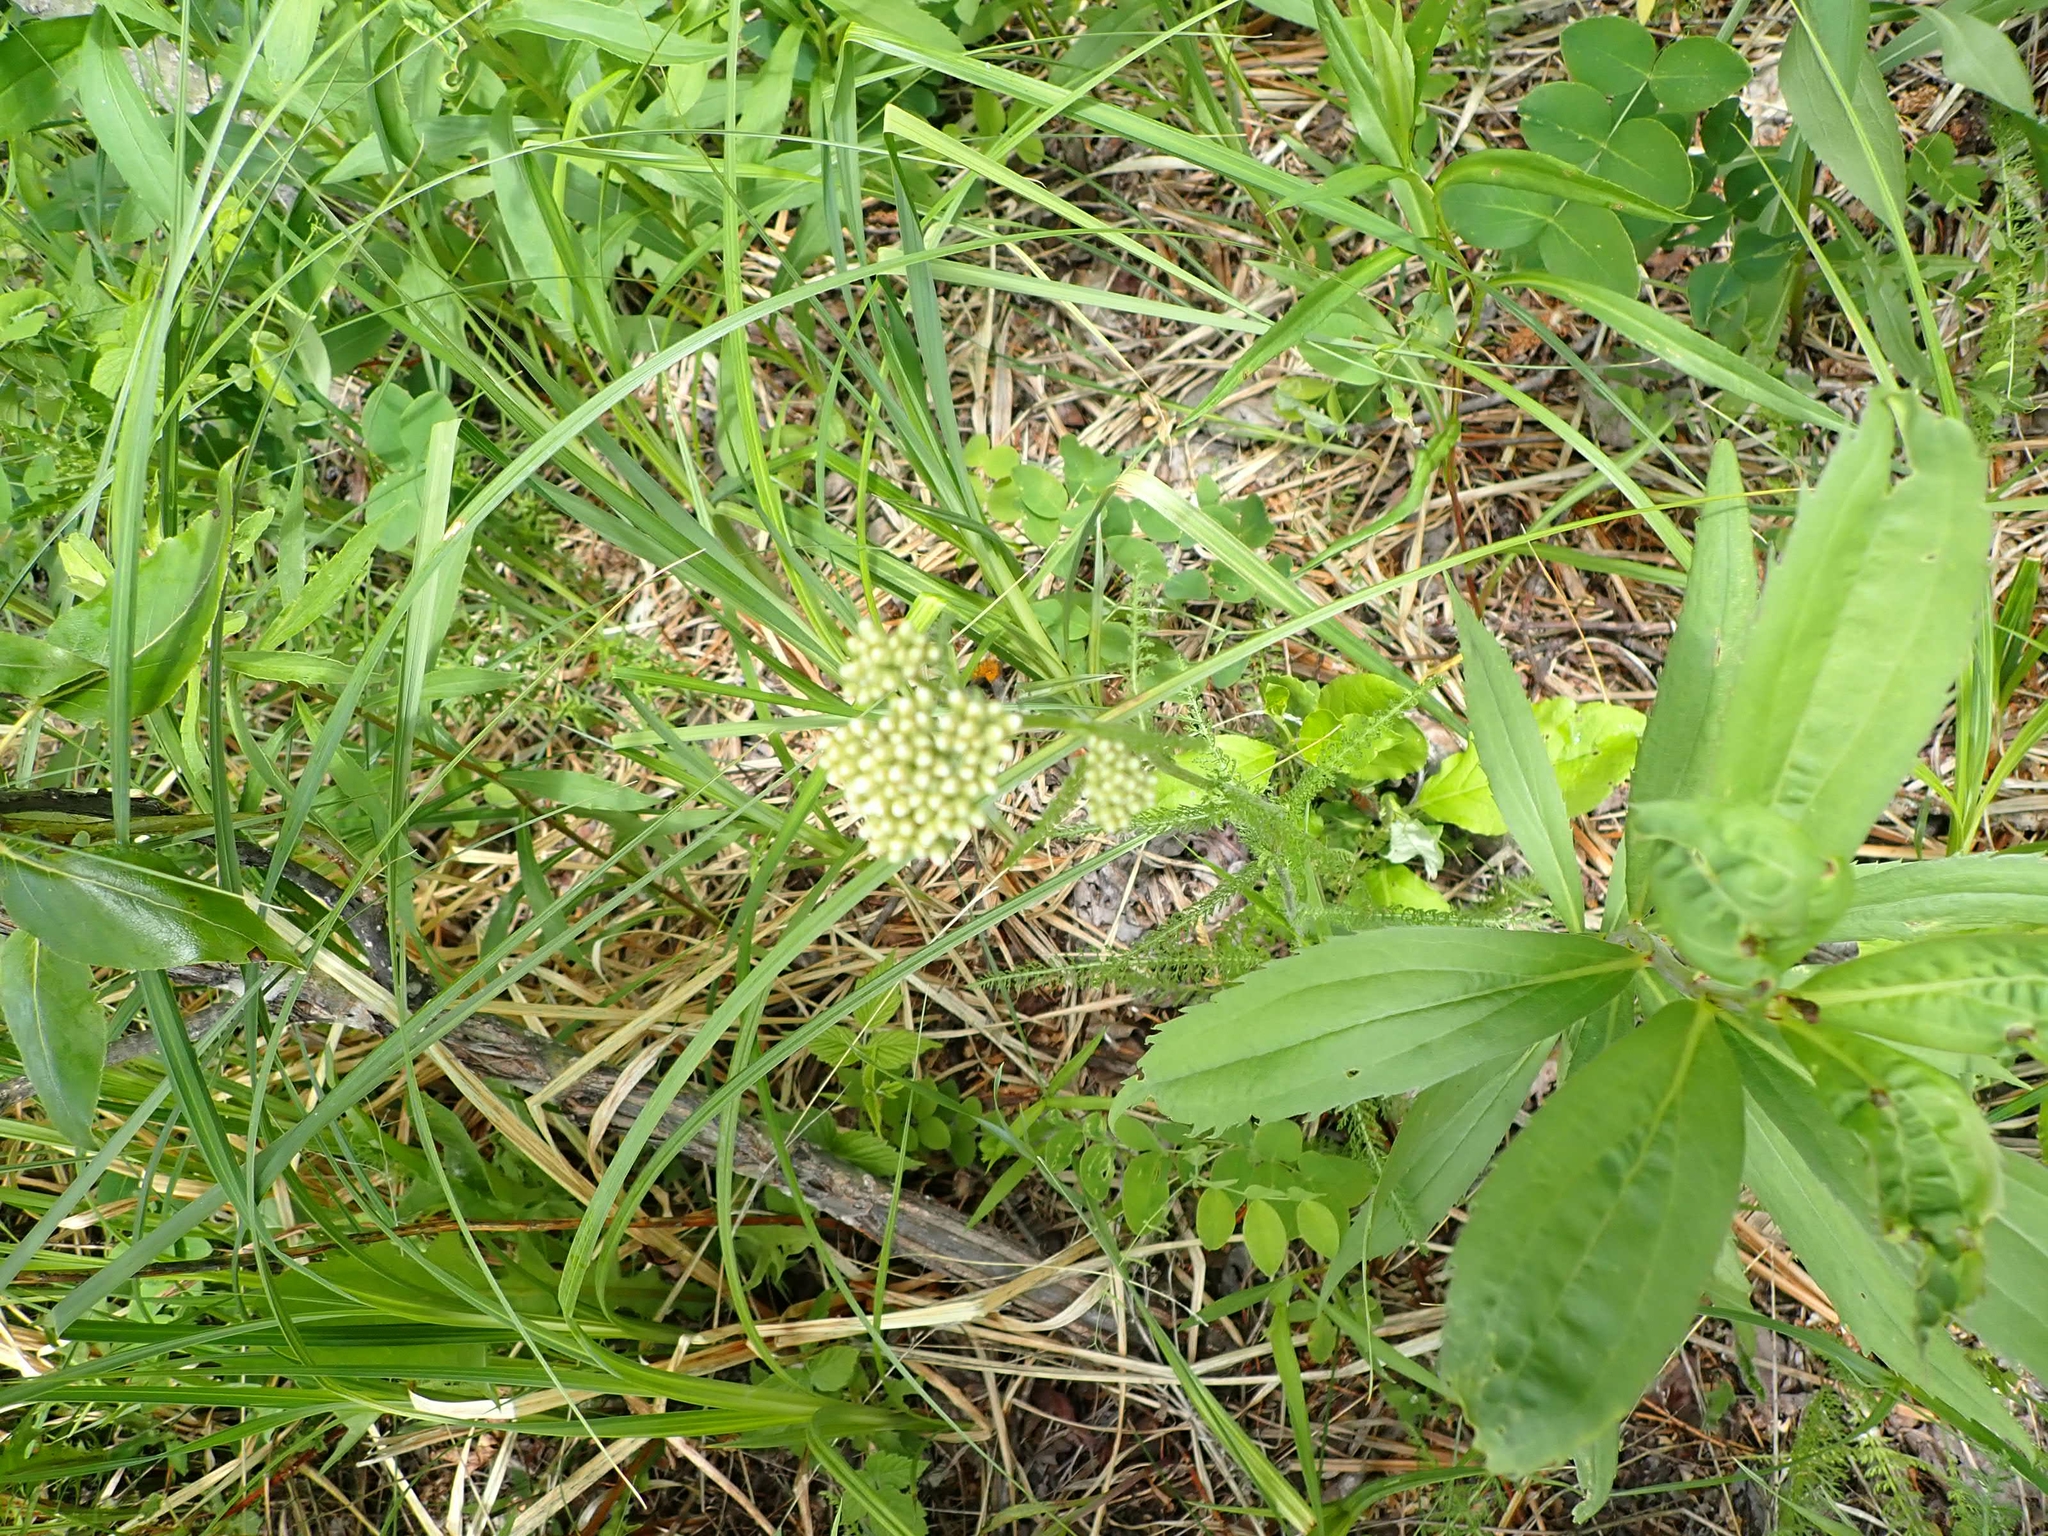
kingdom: Plantae
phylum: Tracheophyta
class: Magnoliopsida
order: Asterales
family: Asteraceae
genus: Achillea
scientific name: Achillea millefolium
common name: Yarrow
